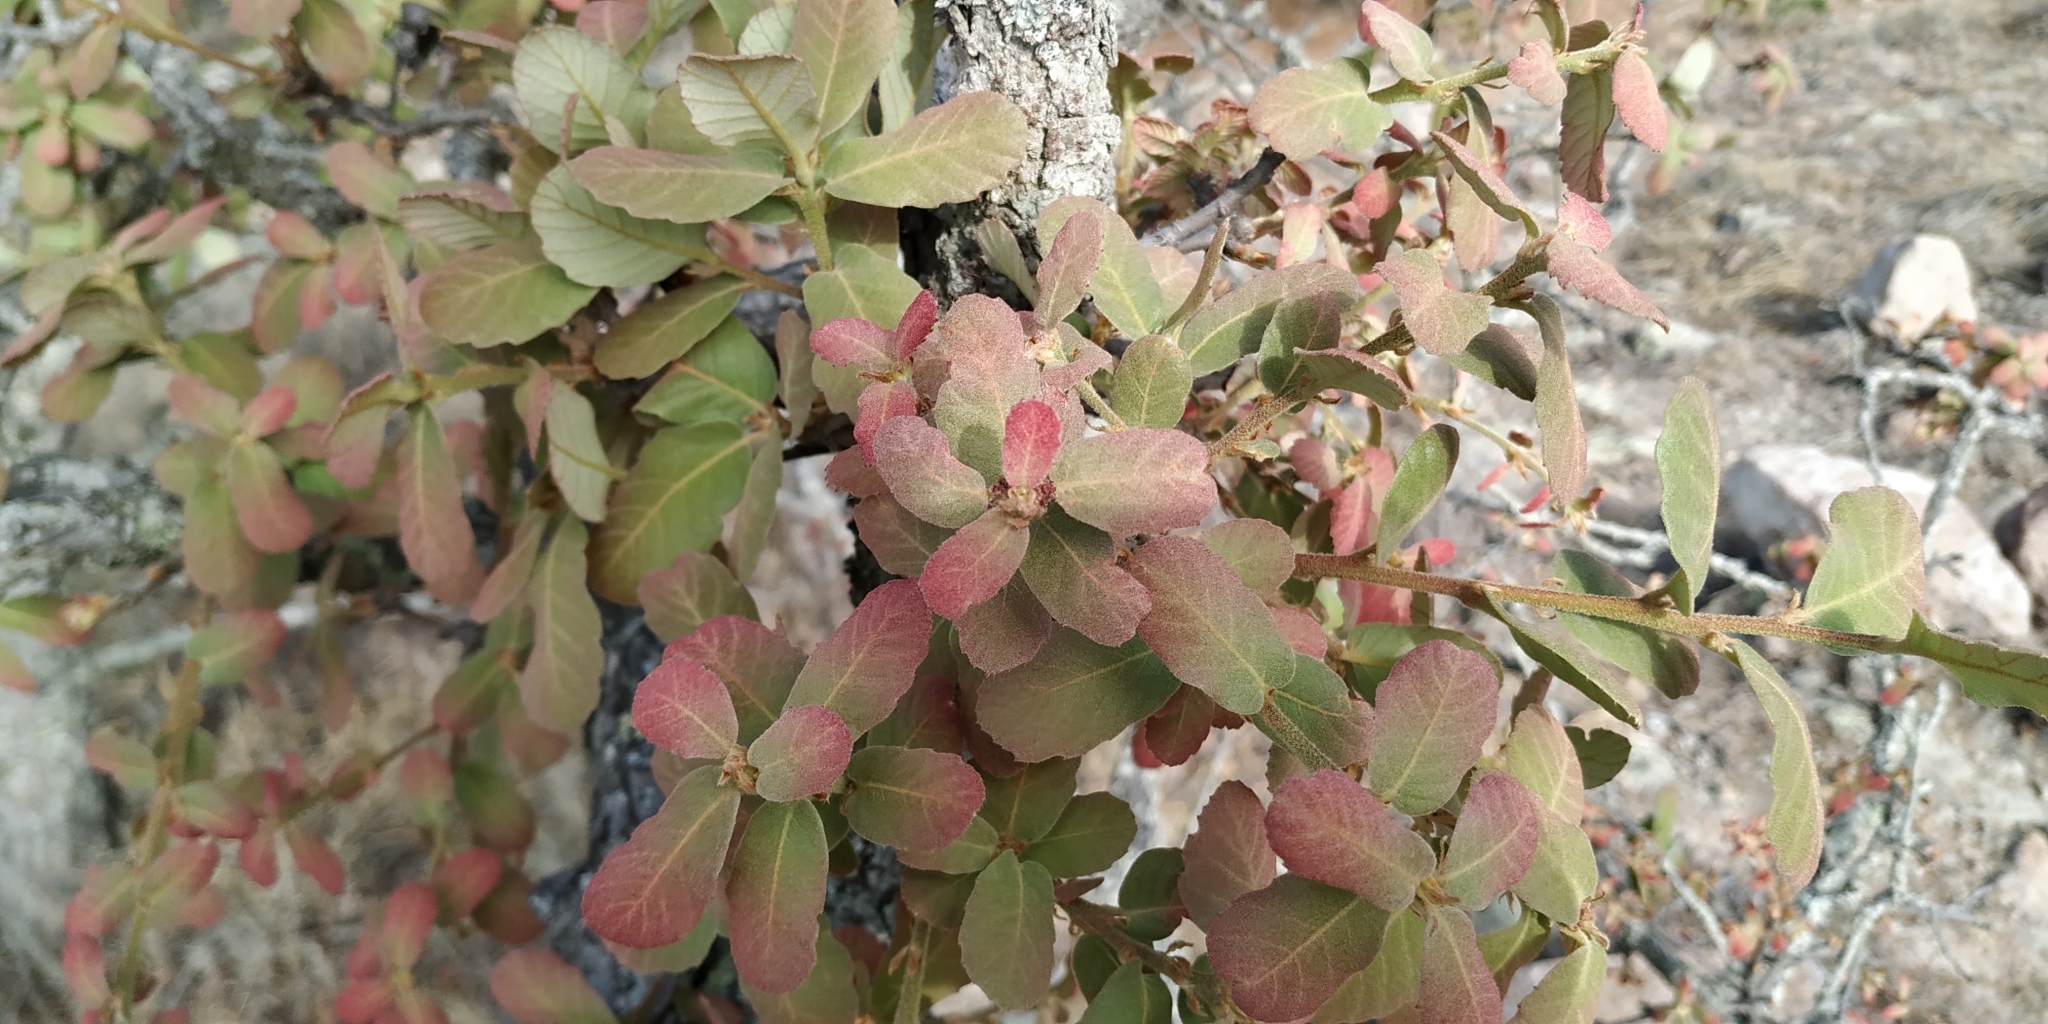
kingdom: Plantae
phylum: Tracheophyta
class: Magnoliopsida
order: Fagales
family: Fagaceae
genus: Quercus
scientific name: Quercus
